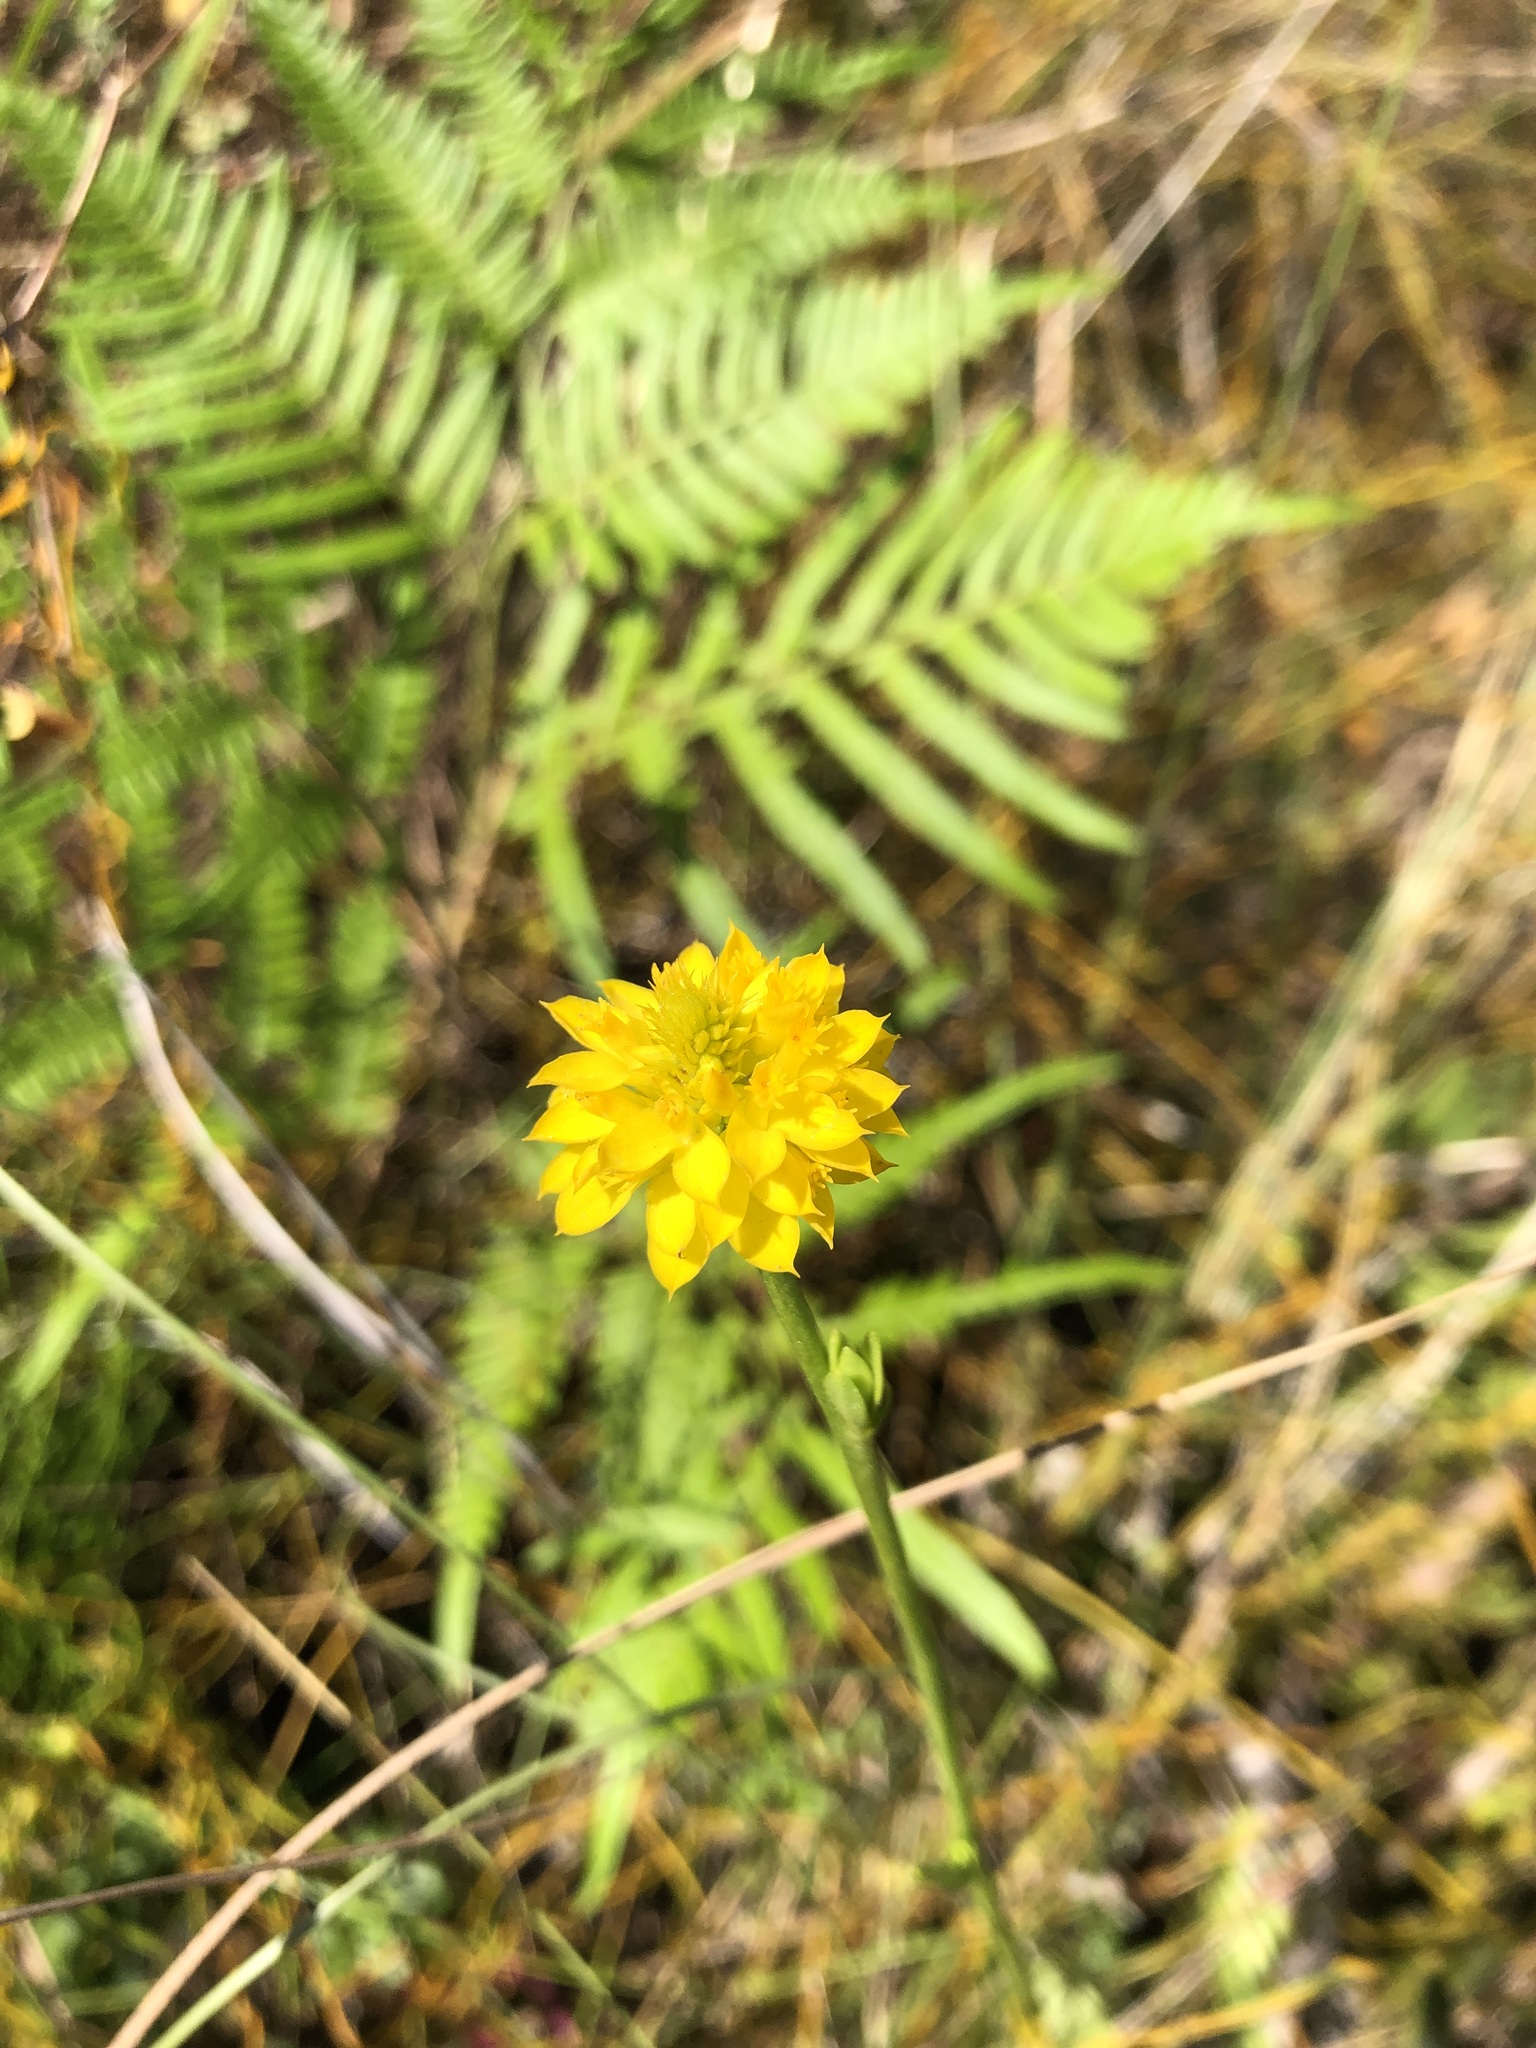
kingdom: Plantae
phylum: Tracheophyta
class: Magnoliopsida
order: Fabales
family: Polygalaceae
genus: Polygala
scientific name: Polygala rugelii
